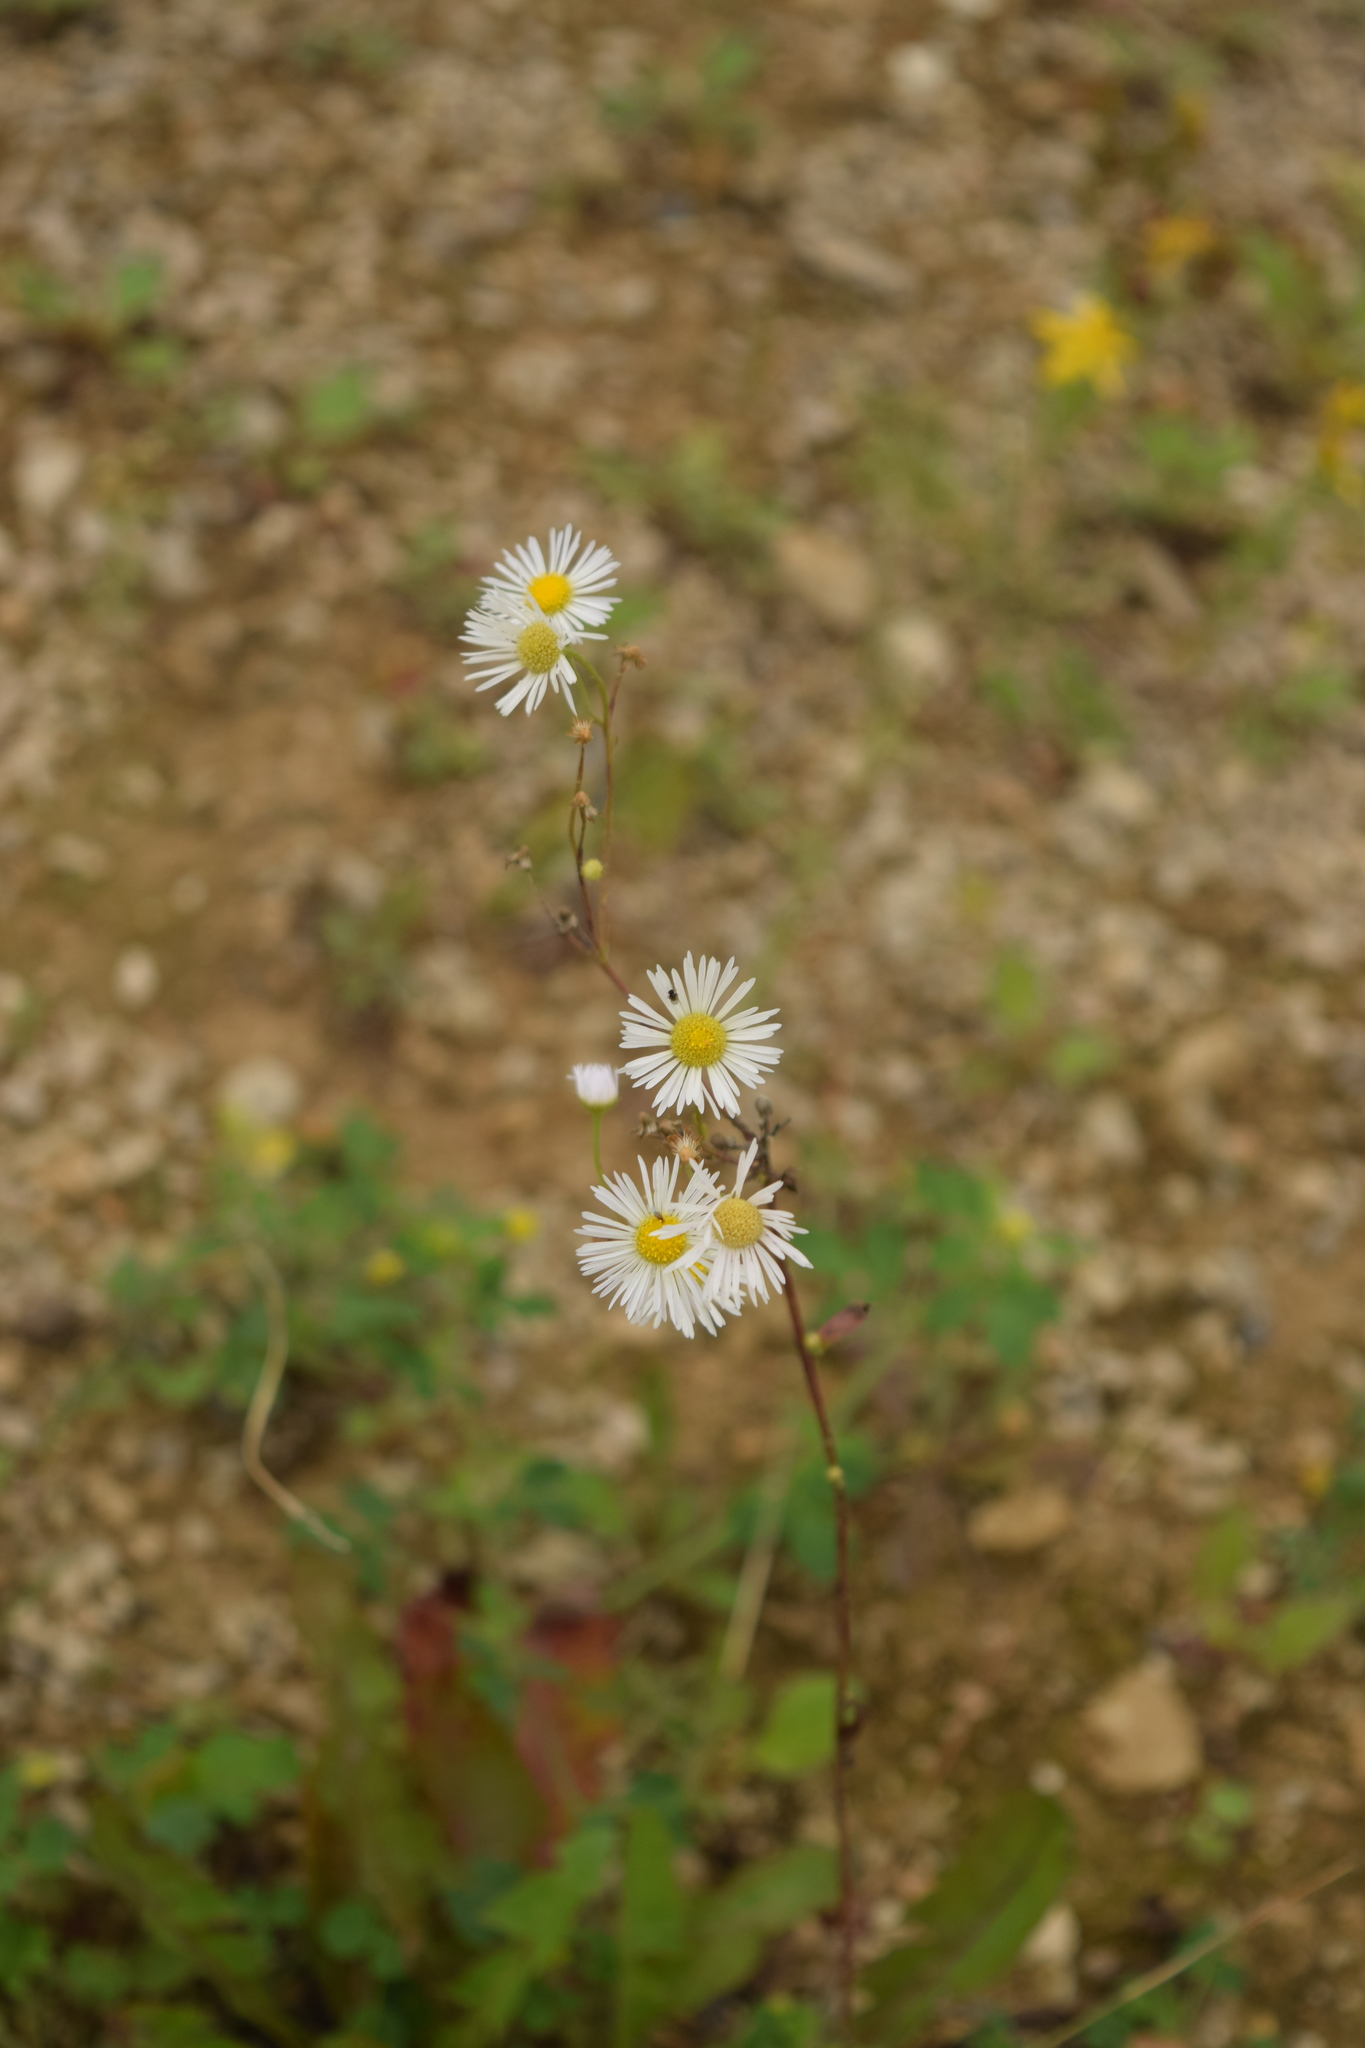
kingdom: Plantae
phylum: Tracheophyta
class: Magnoliopsida
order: Asterales
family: Asteraceae
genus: Erigeron
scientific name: Erigeron annuus
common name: Tall fleabane
